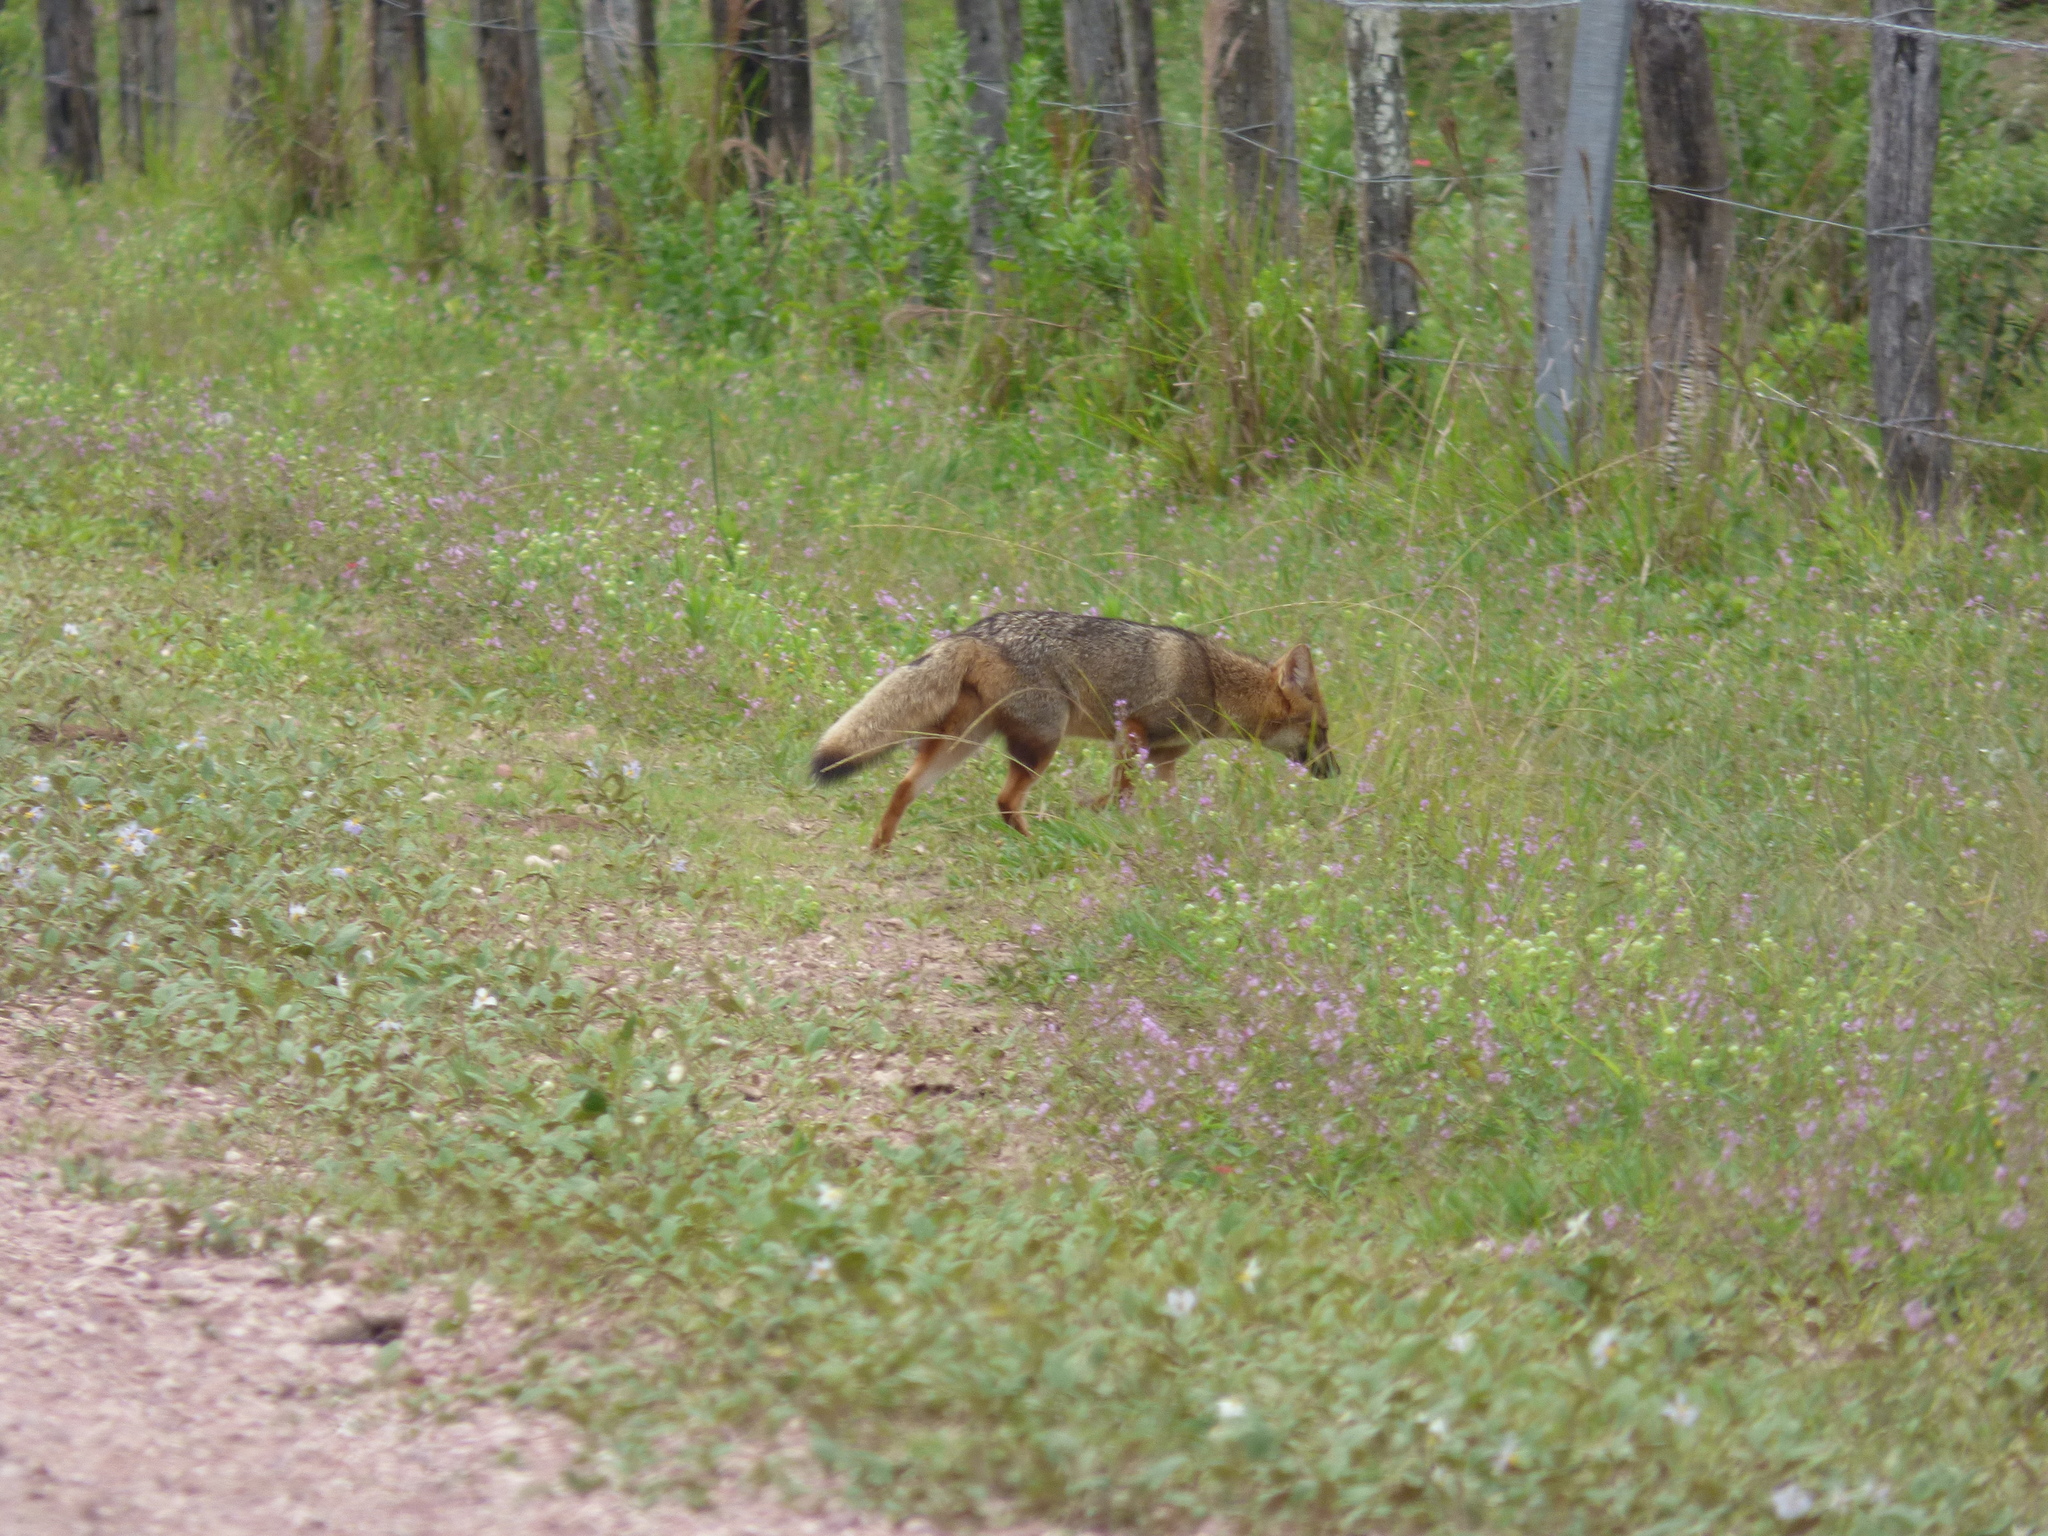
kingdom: Animalia
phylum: Chordata
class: Mammalia
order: Carnivora
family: Canidae
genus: Lycalopex
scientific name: Lycalopex gymnocercus
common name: Pampas fox
